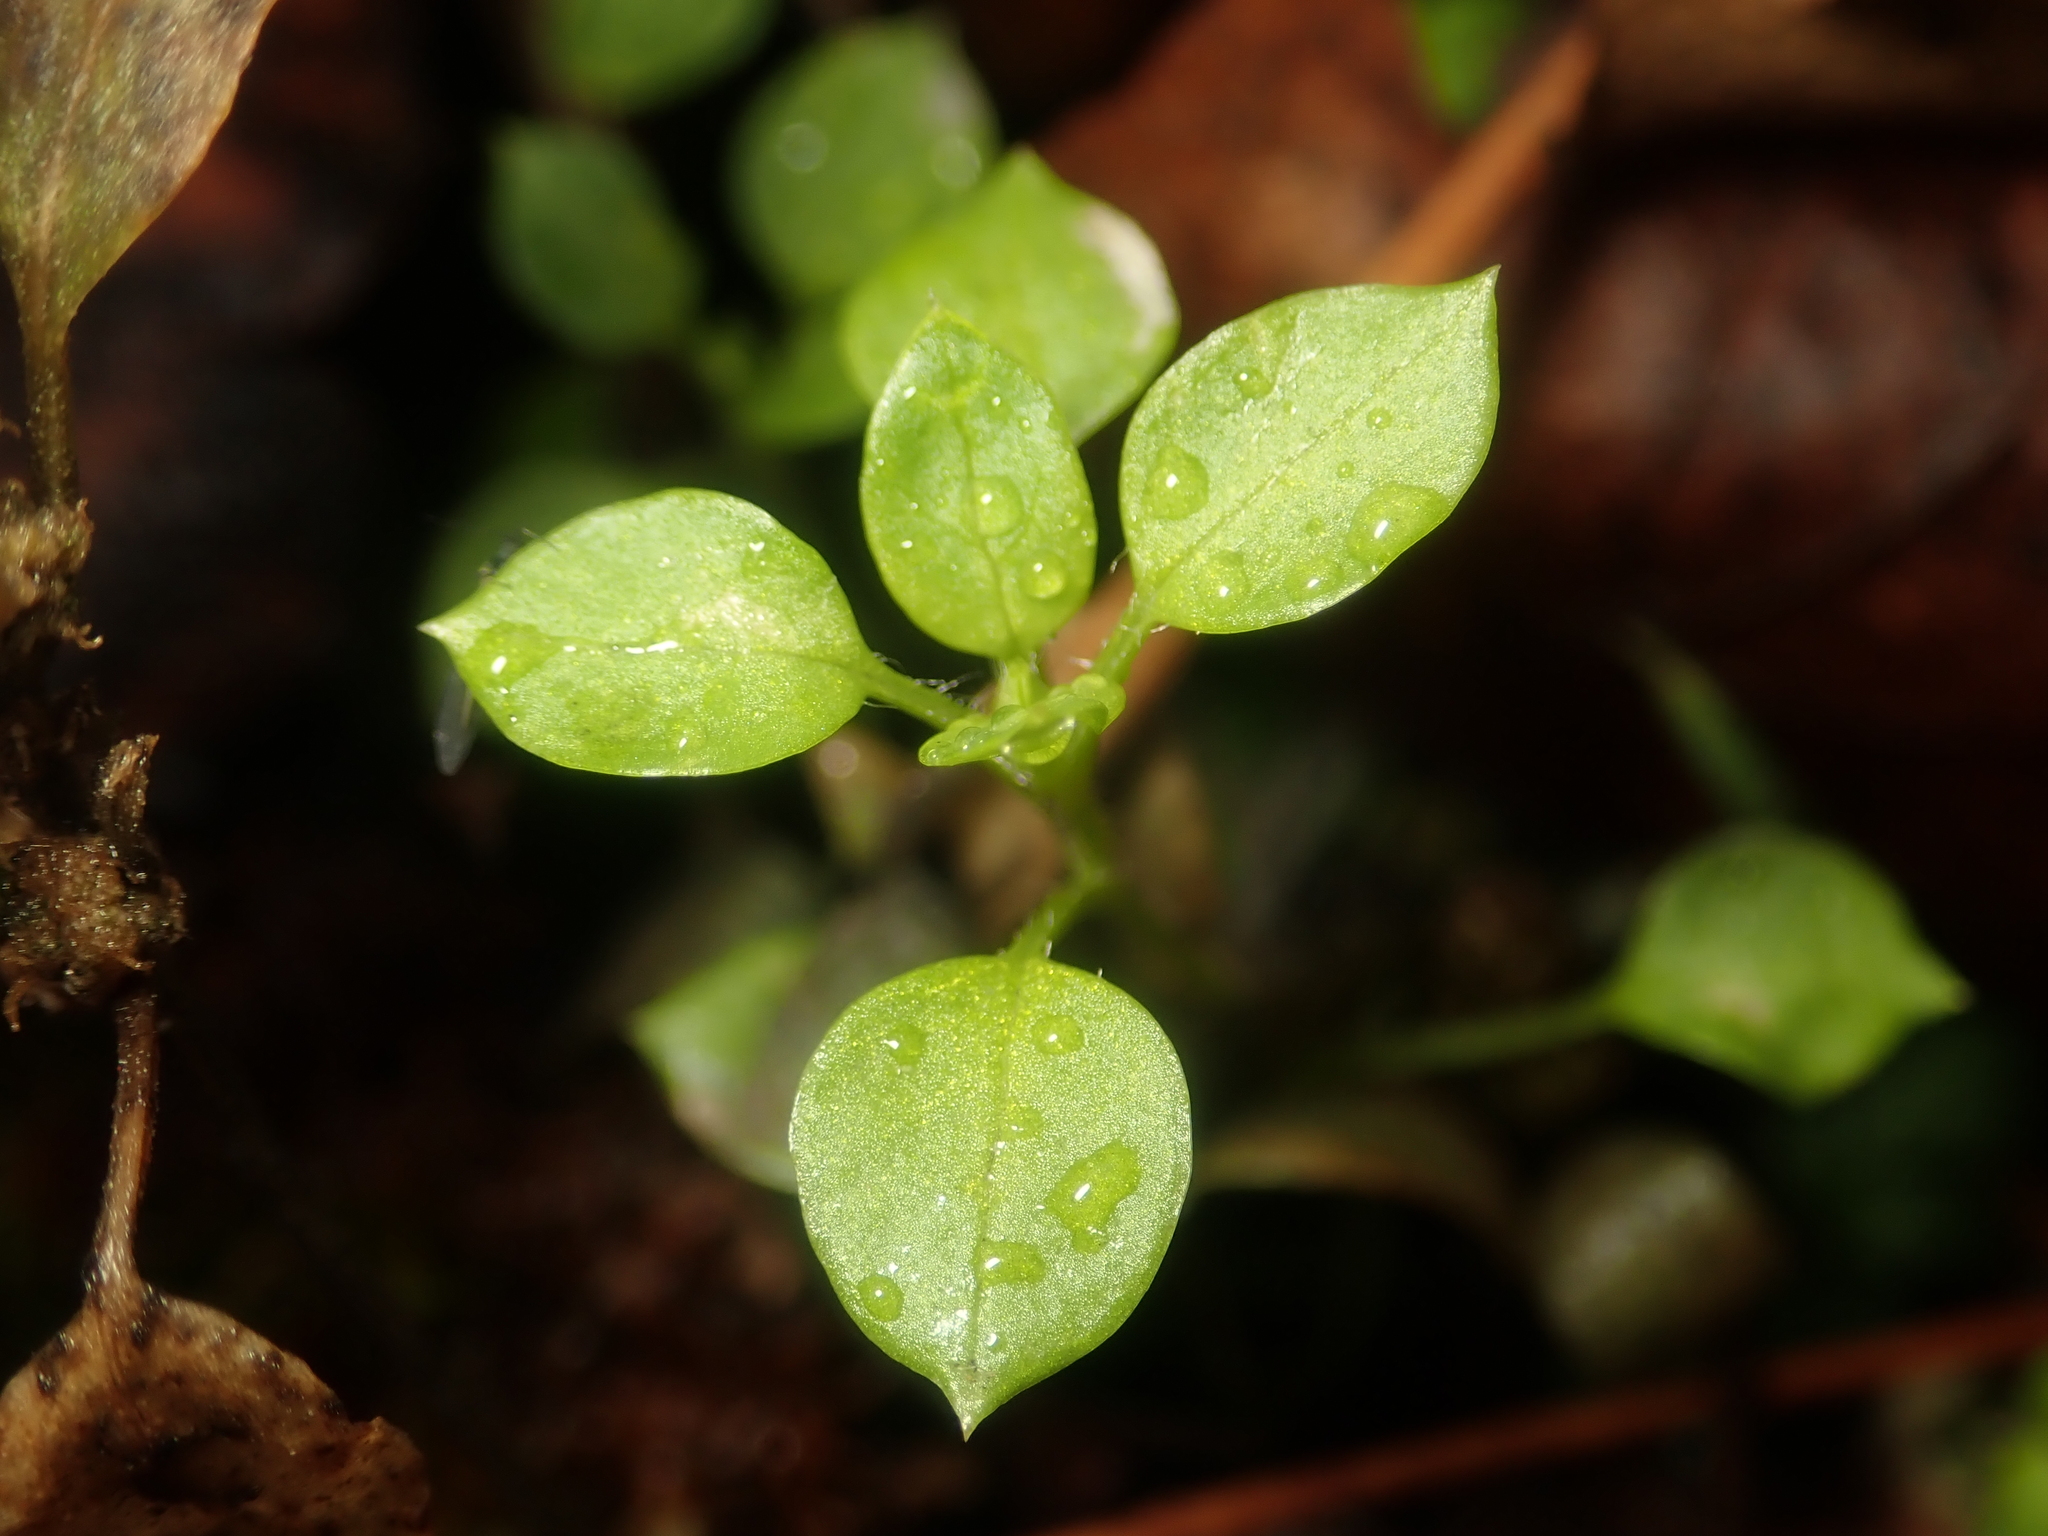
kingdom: Plantae
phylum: Tracheophyta
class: Magnoliopsida
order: Caryophyllales
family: Caryophyllaceae
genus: Stellaria
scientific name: Stellaria media
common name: Common chickweed
